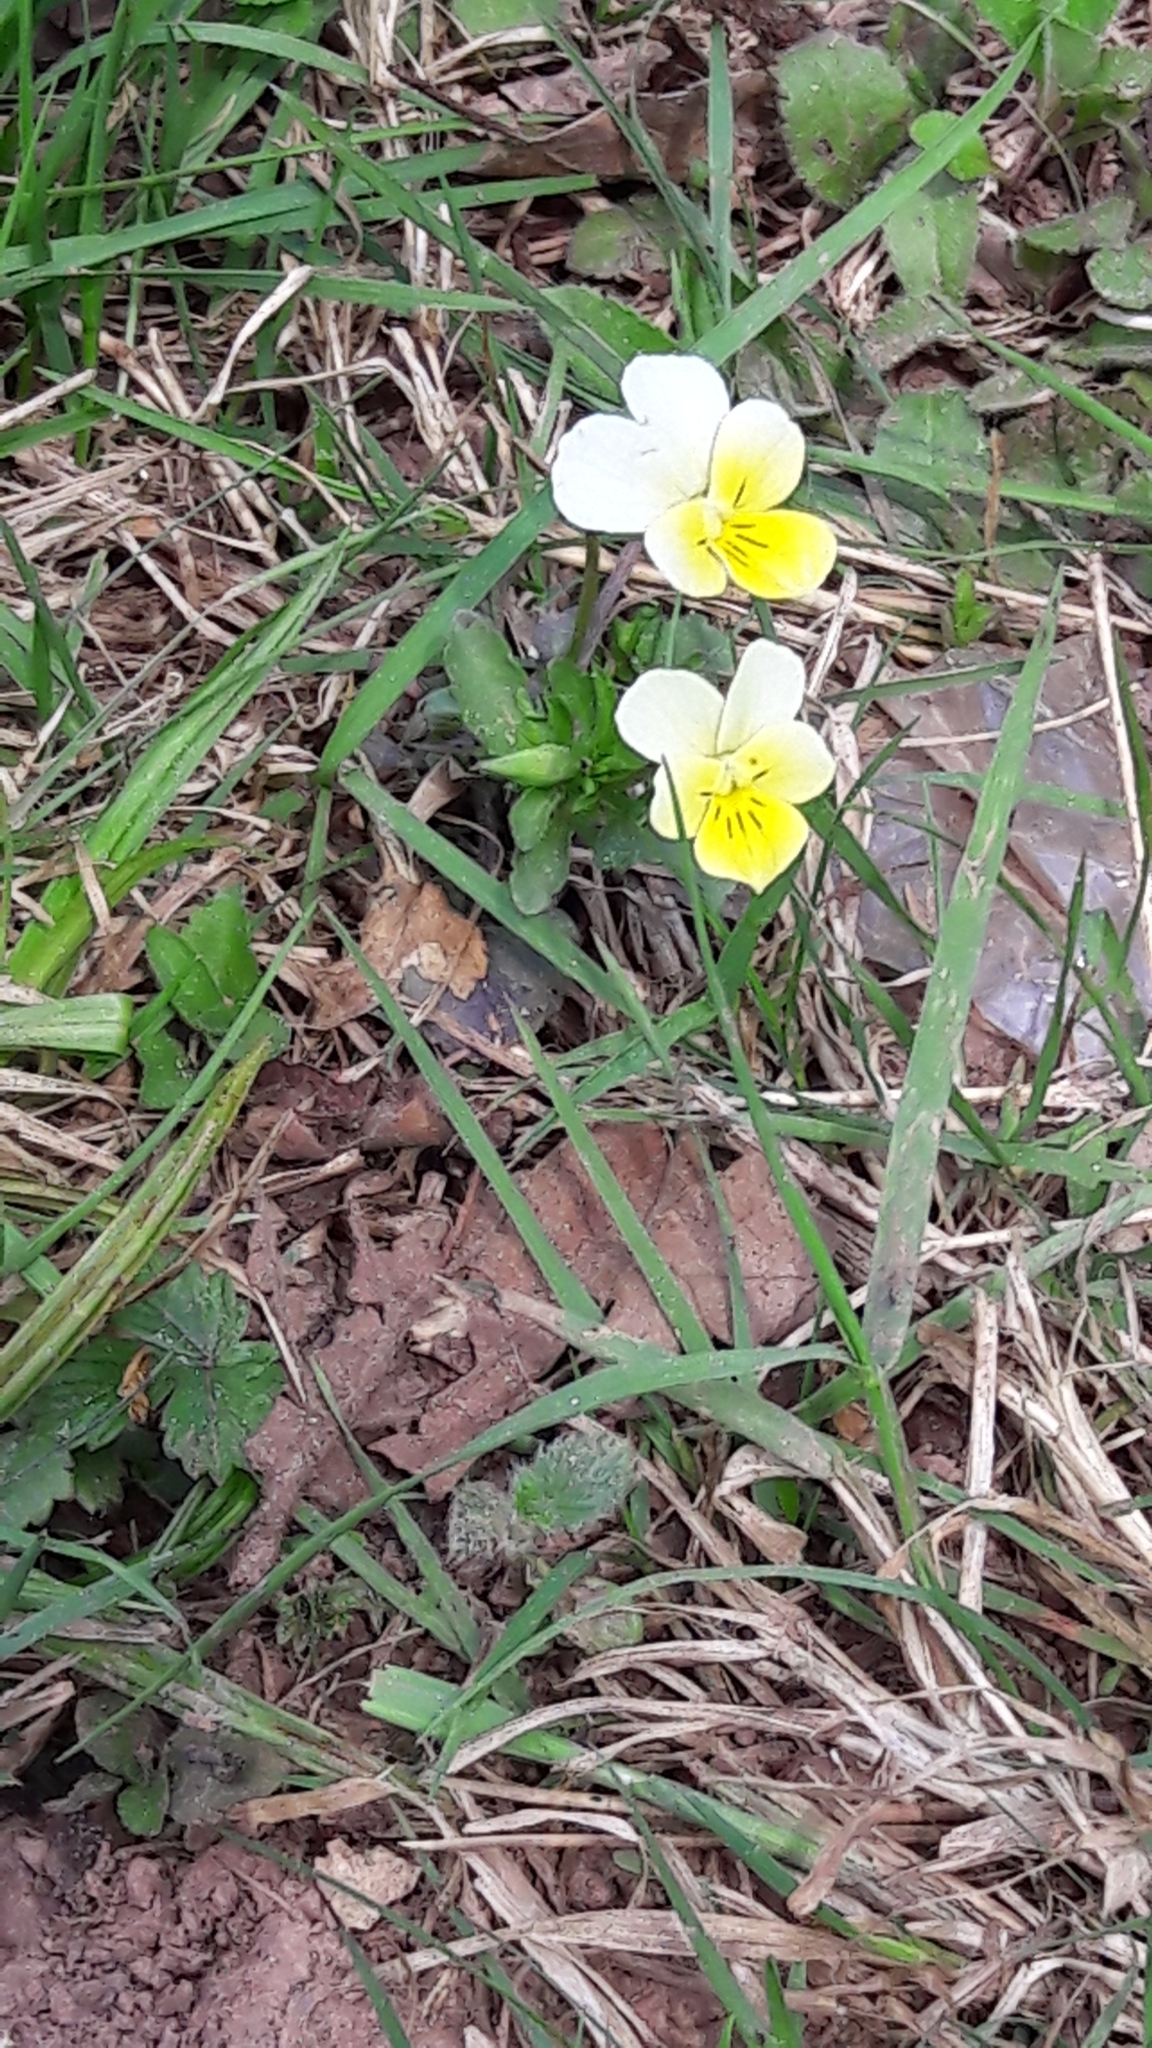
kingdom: Plantae
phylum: Tracheophyta
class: Magnoliopsida
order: Malpighiales
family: Violaceae
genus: Viola
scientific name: Viola arvensis
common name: Field pansy
